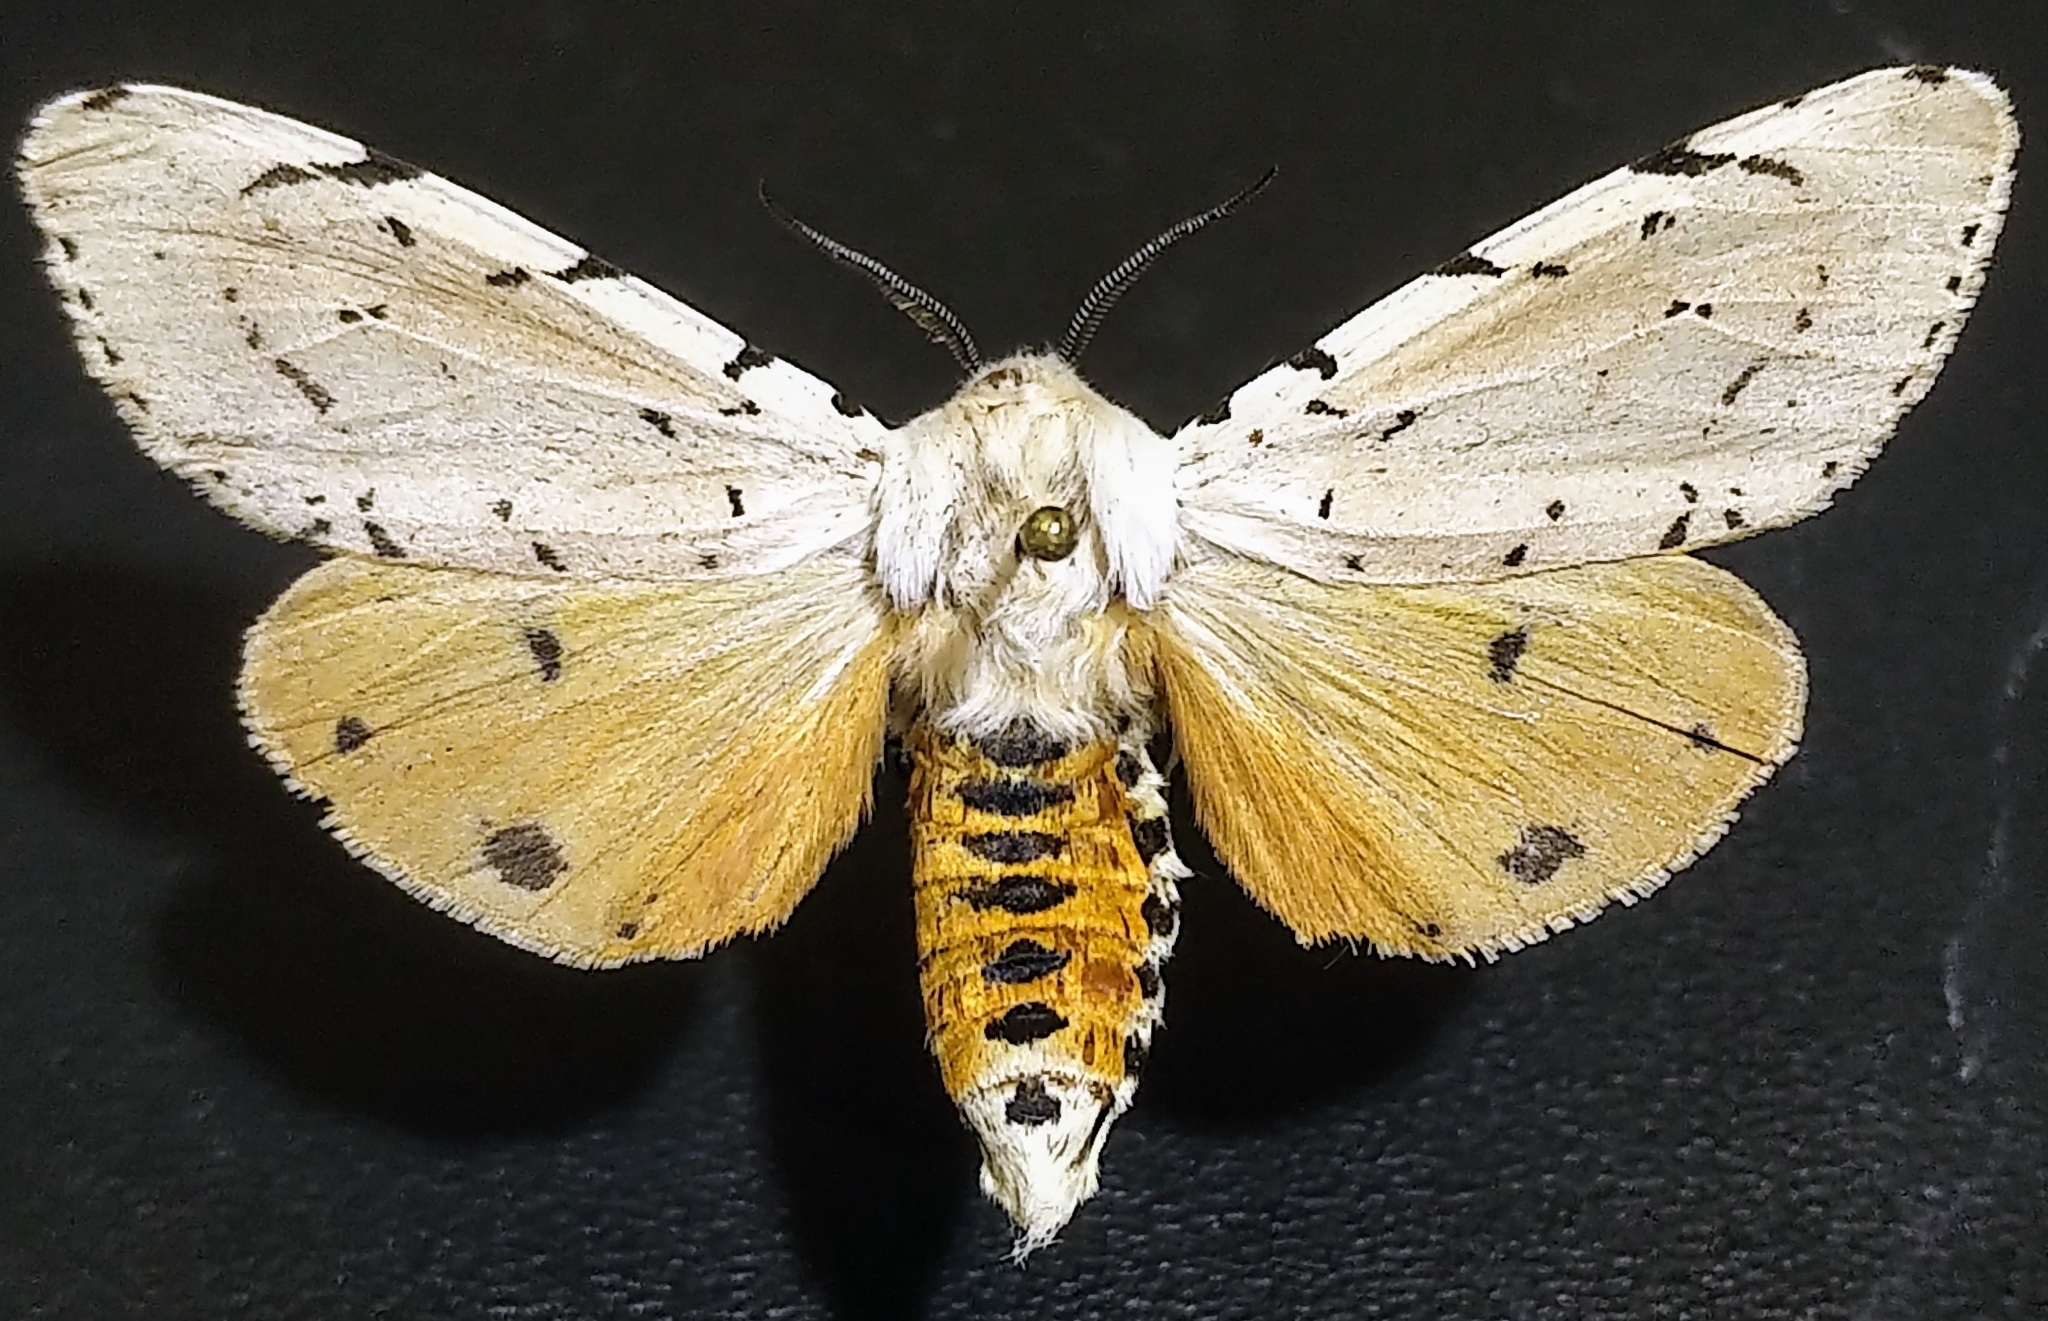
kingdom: Animalia
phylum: Arthropoda
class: Insecta
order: Lepidoptera
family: Erebidae
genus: Estigmene
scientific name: Estigmene acrea
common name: Salt marsh moth
